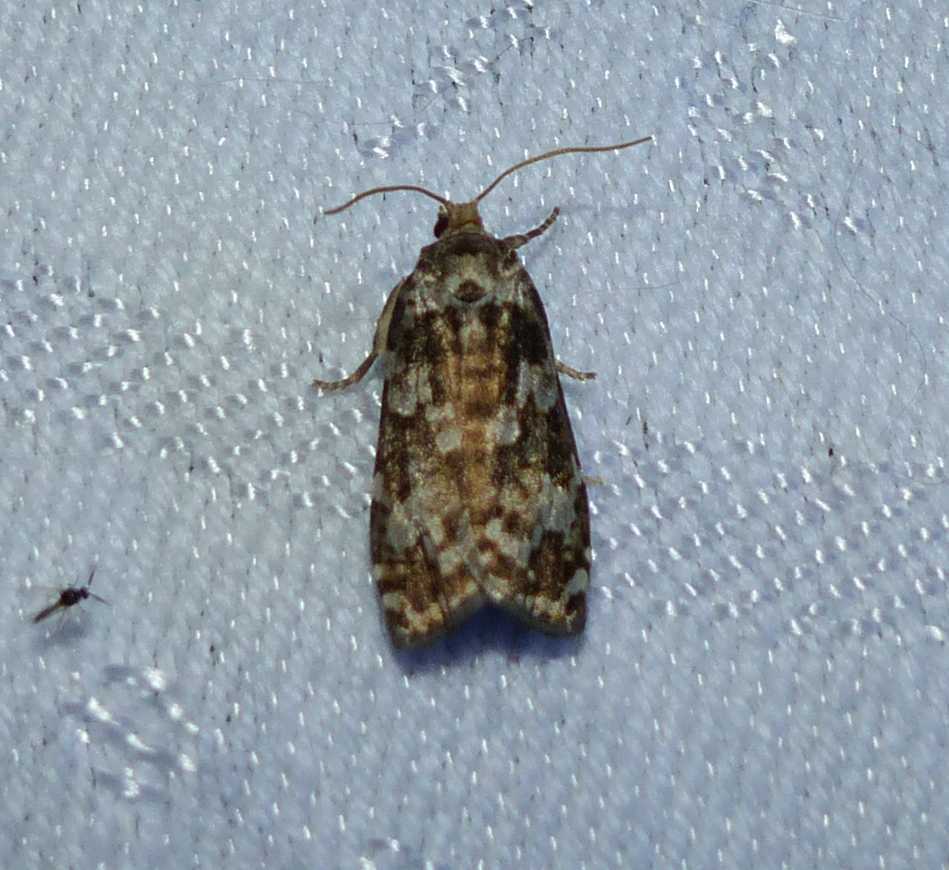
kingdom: Animalia
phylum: Arthropoda
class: Insecta
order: Lepidoptera
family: Tortricidae
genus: Choristoneura
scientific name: Choristoneura fumiferana
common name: Spruce budworm
